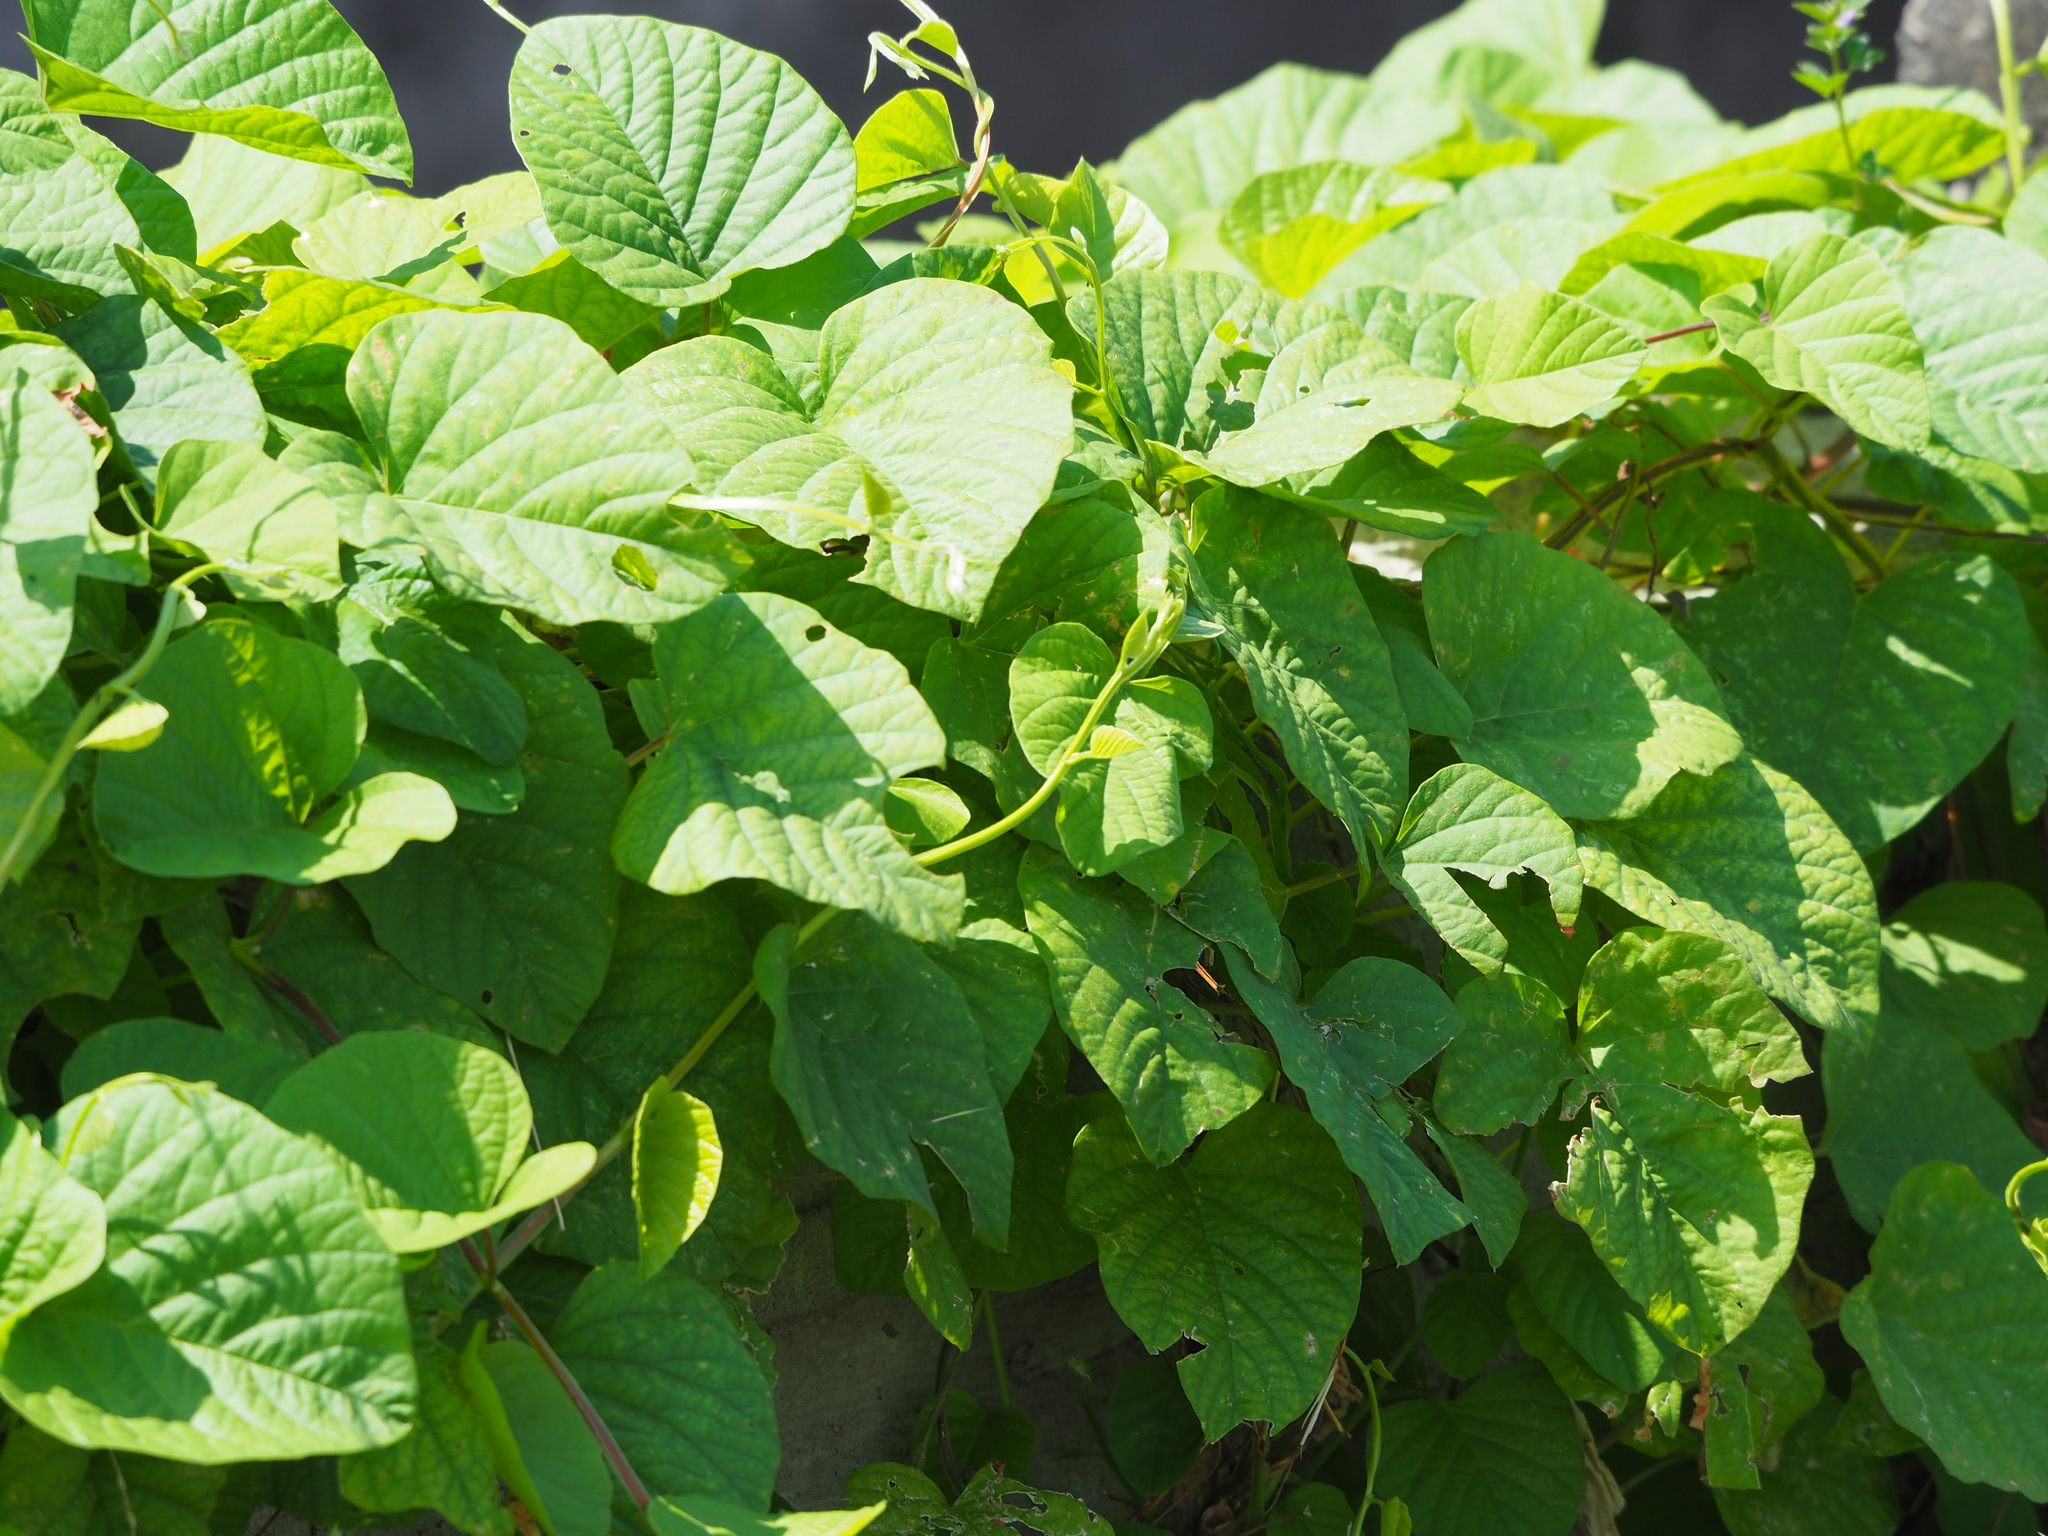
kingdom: Plantae
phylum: Tracheophyta
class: Magnoliopsida
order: Solanales
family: Convolvulaceae
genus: Operculina
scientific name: Operculina turpethum
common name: Transparent wood-rose
